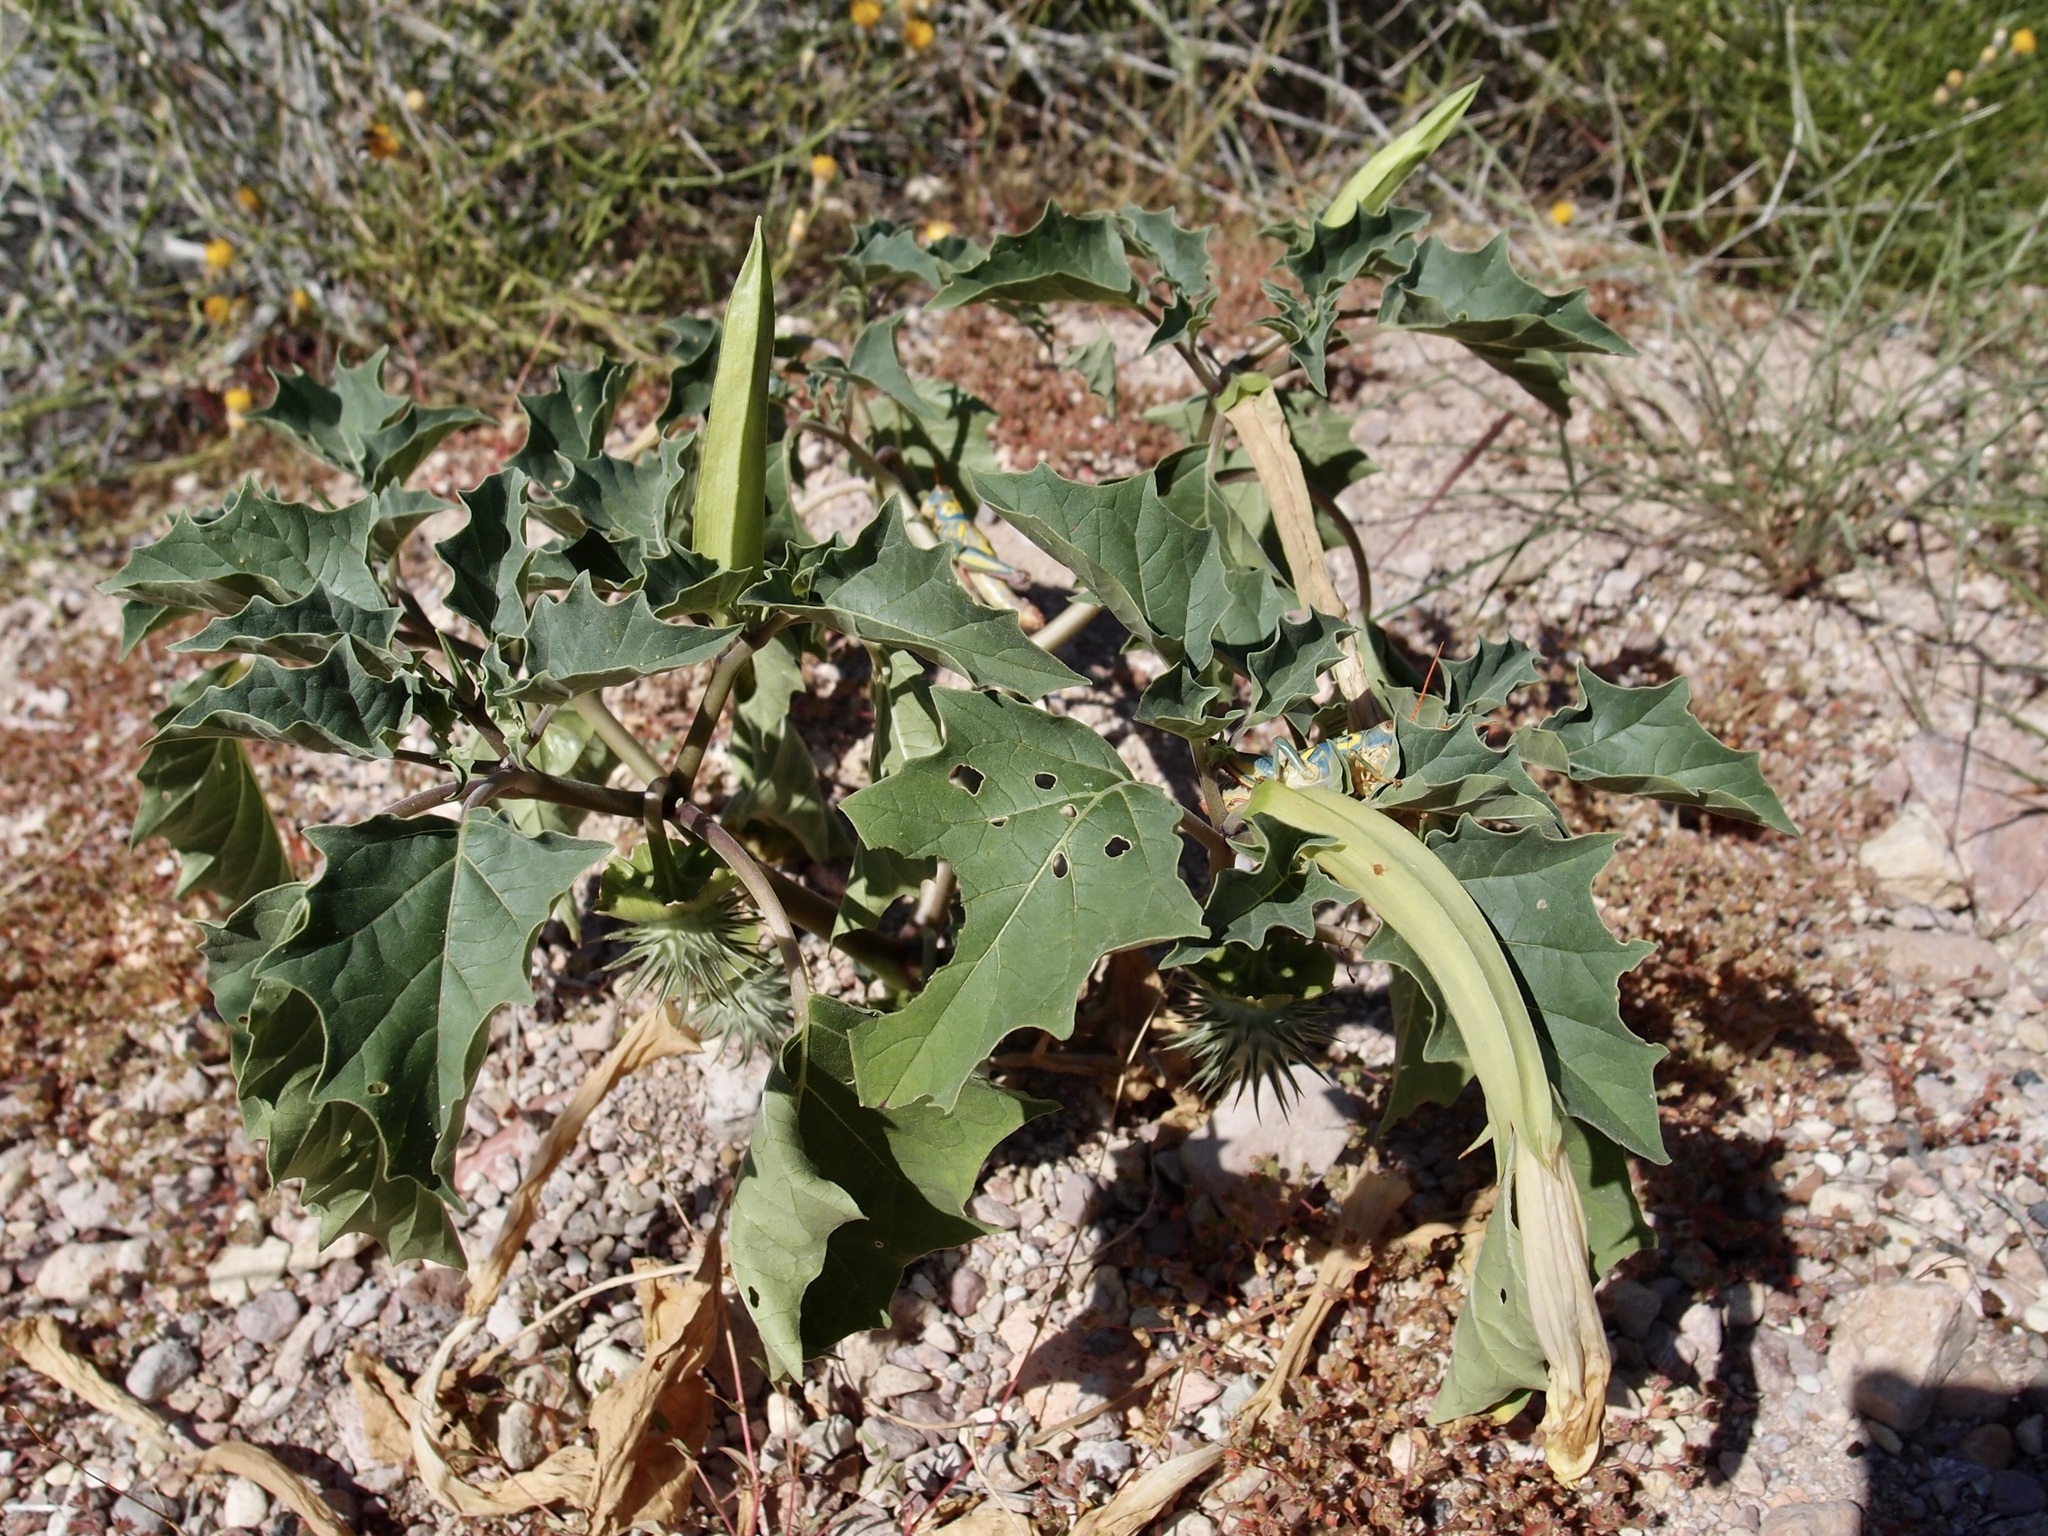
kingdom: Plantae
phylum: Tracheophyta
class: Magnoliopsida
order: Solanales
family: Solanaceae
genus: Datura
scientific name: Datura discolor
